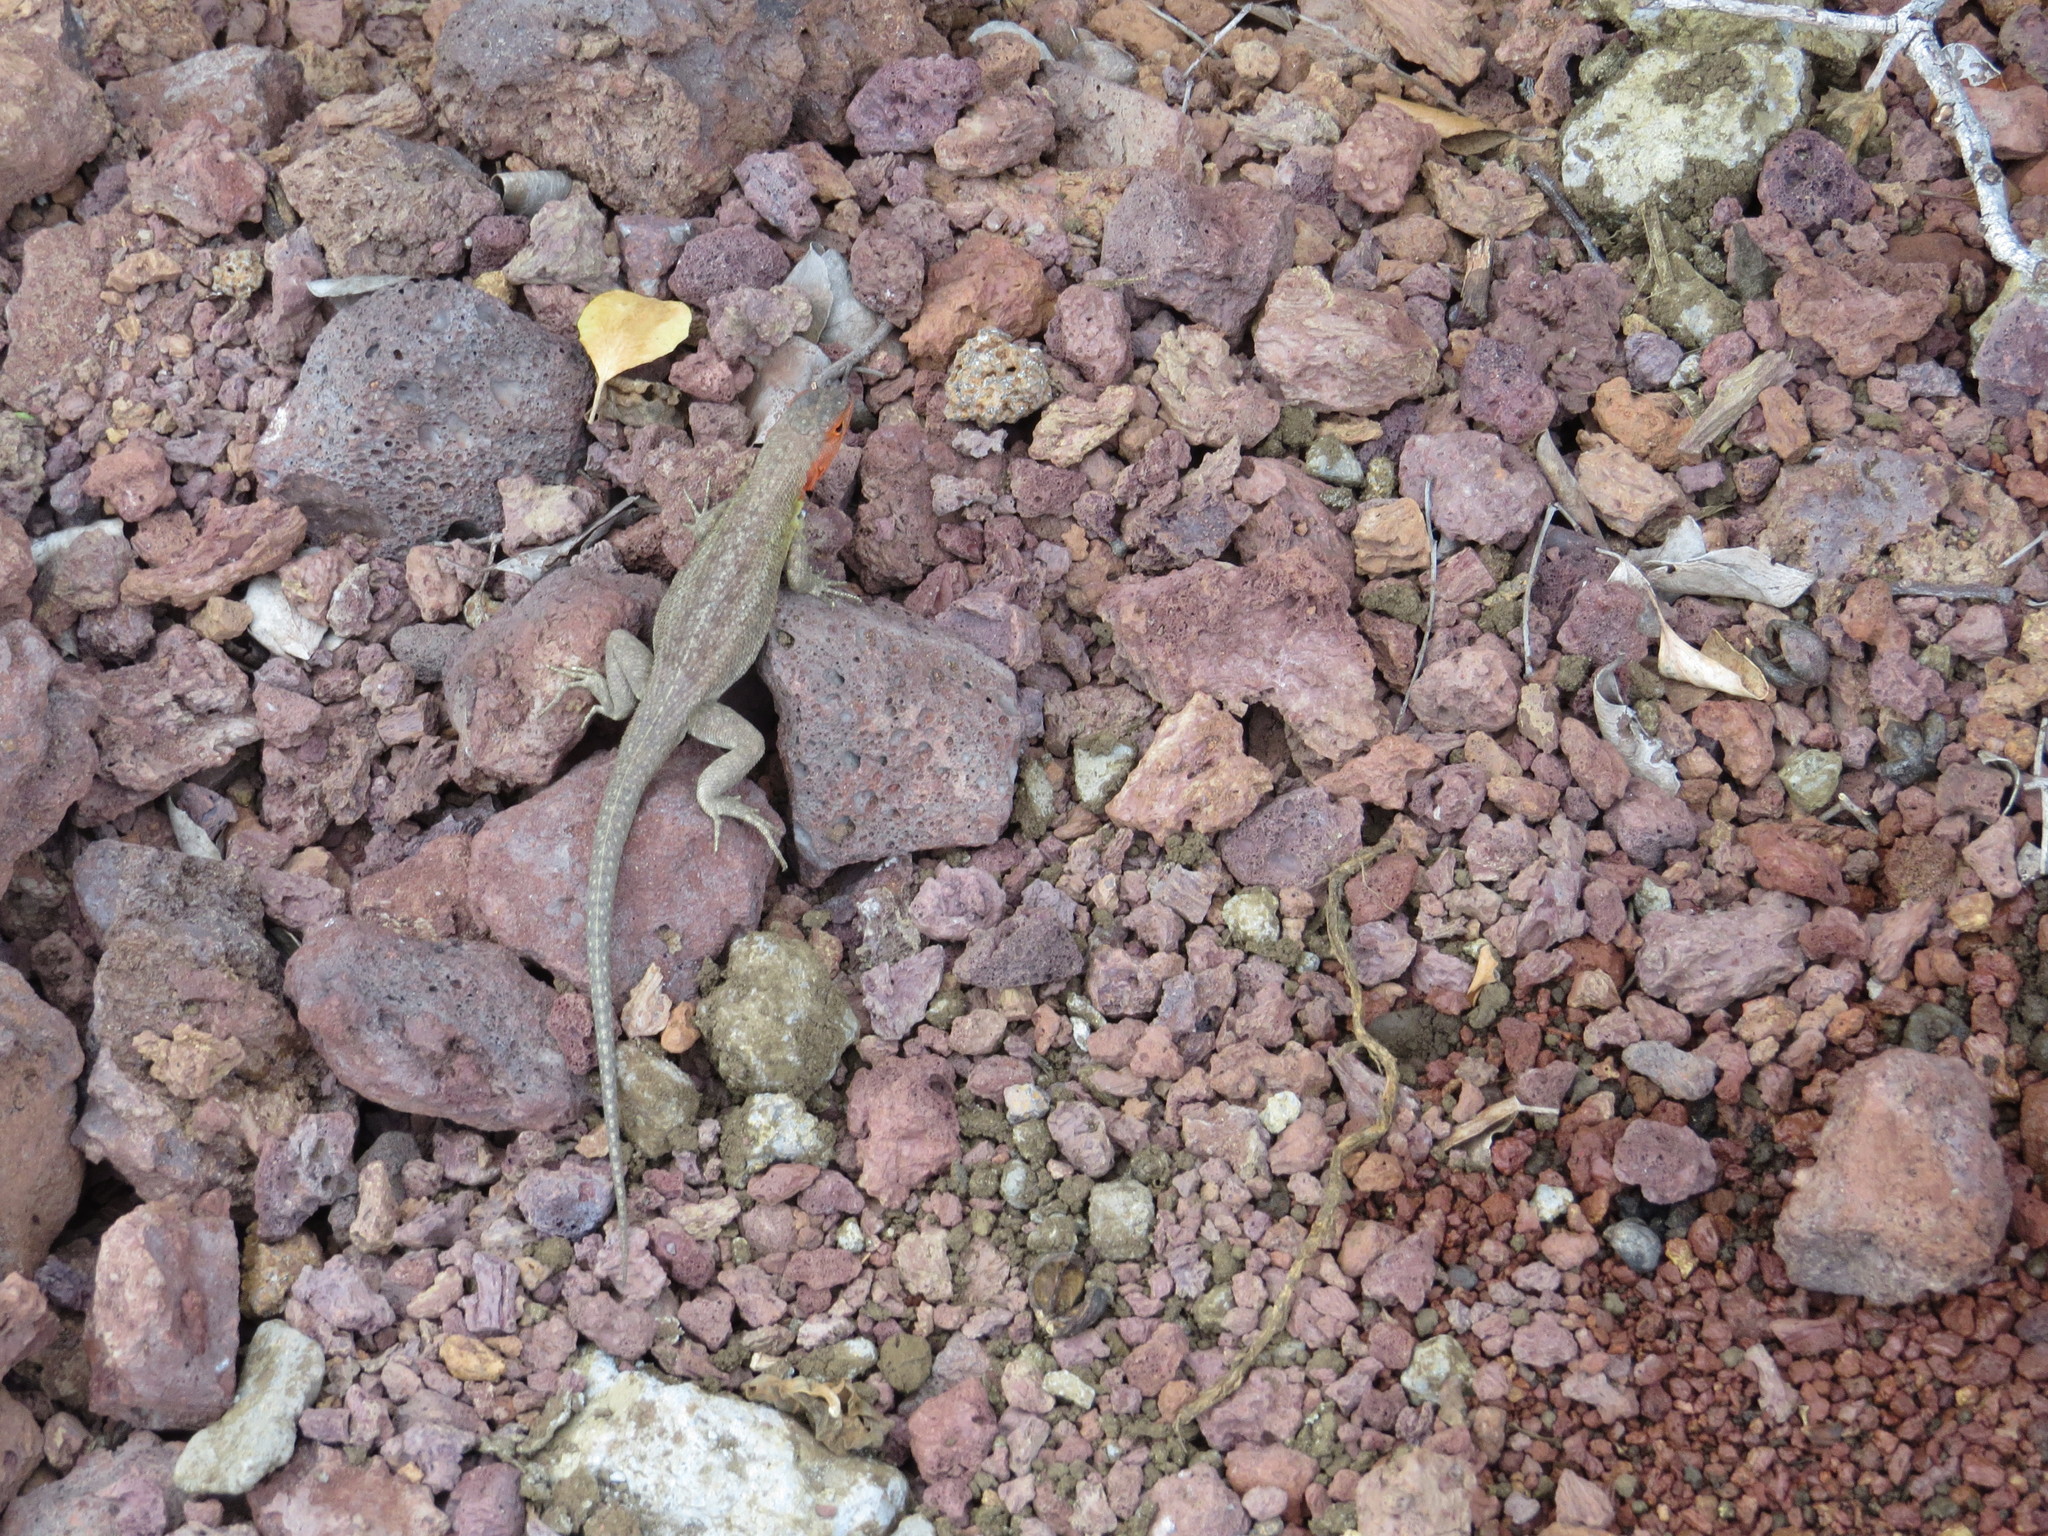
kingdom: Animalia
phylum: Chordata
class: Squamata
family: Tropiduridae
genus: Microlophus
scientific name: Microlophus indefatigabilis
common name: Galapagos lava lizard
